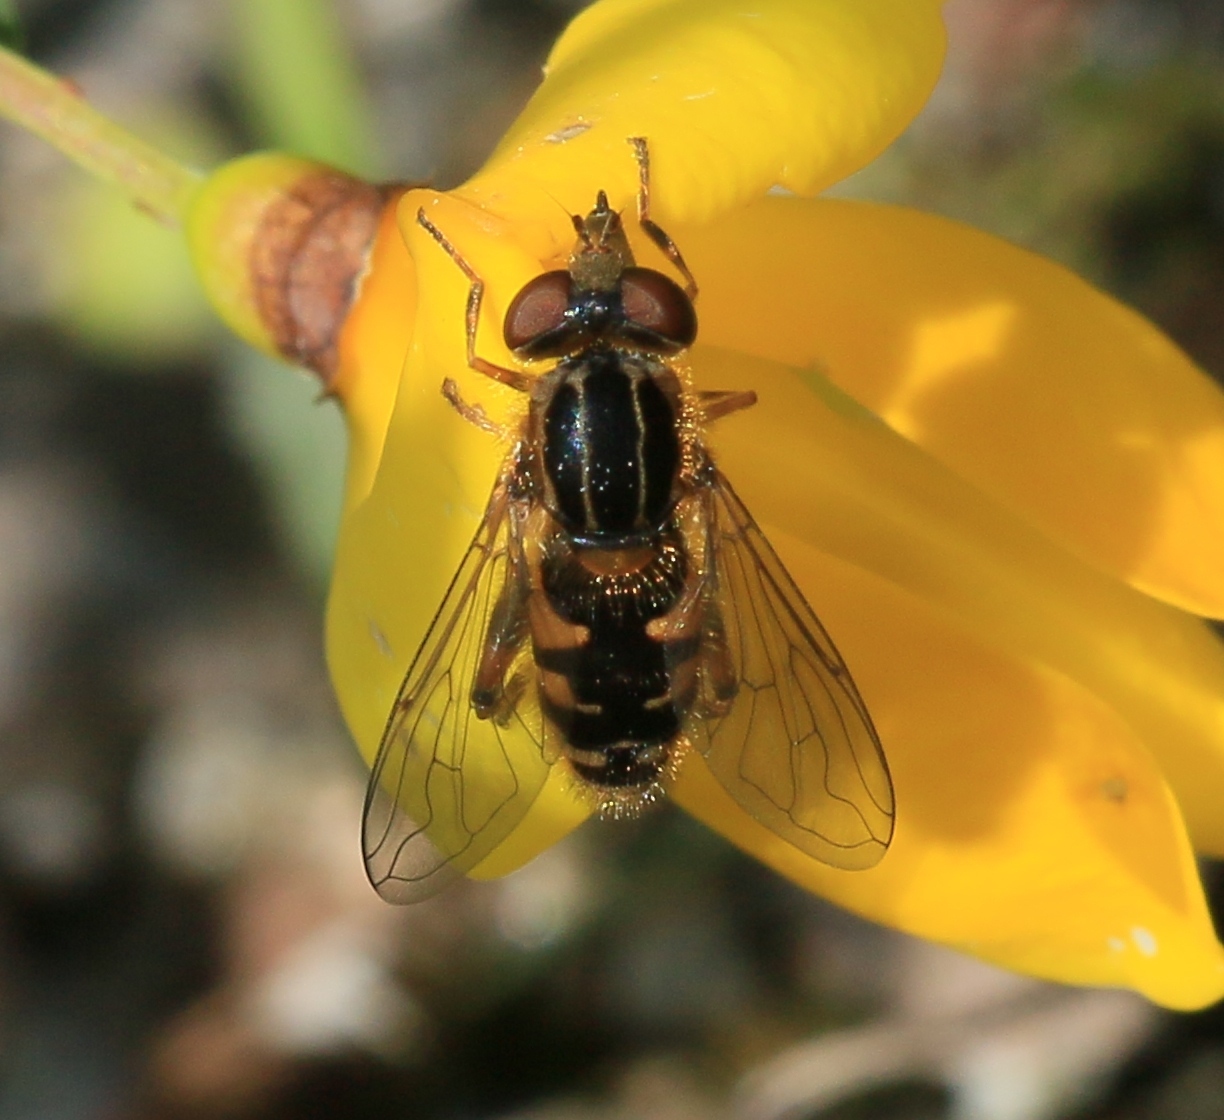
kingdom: Animalia
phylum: Arthropoda
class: Insecta
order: Diptera
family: Syrphidae
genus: Eurimyia
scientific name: Eurimyia lineatus
